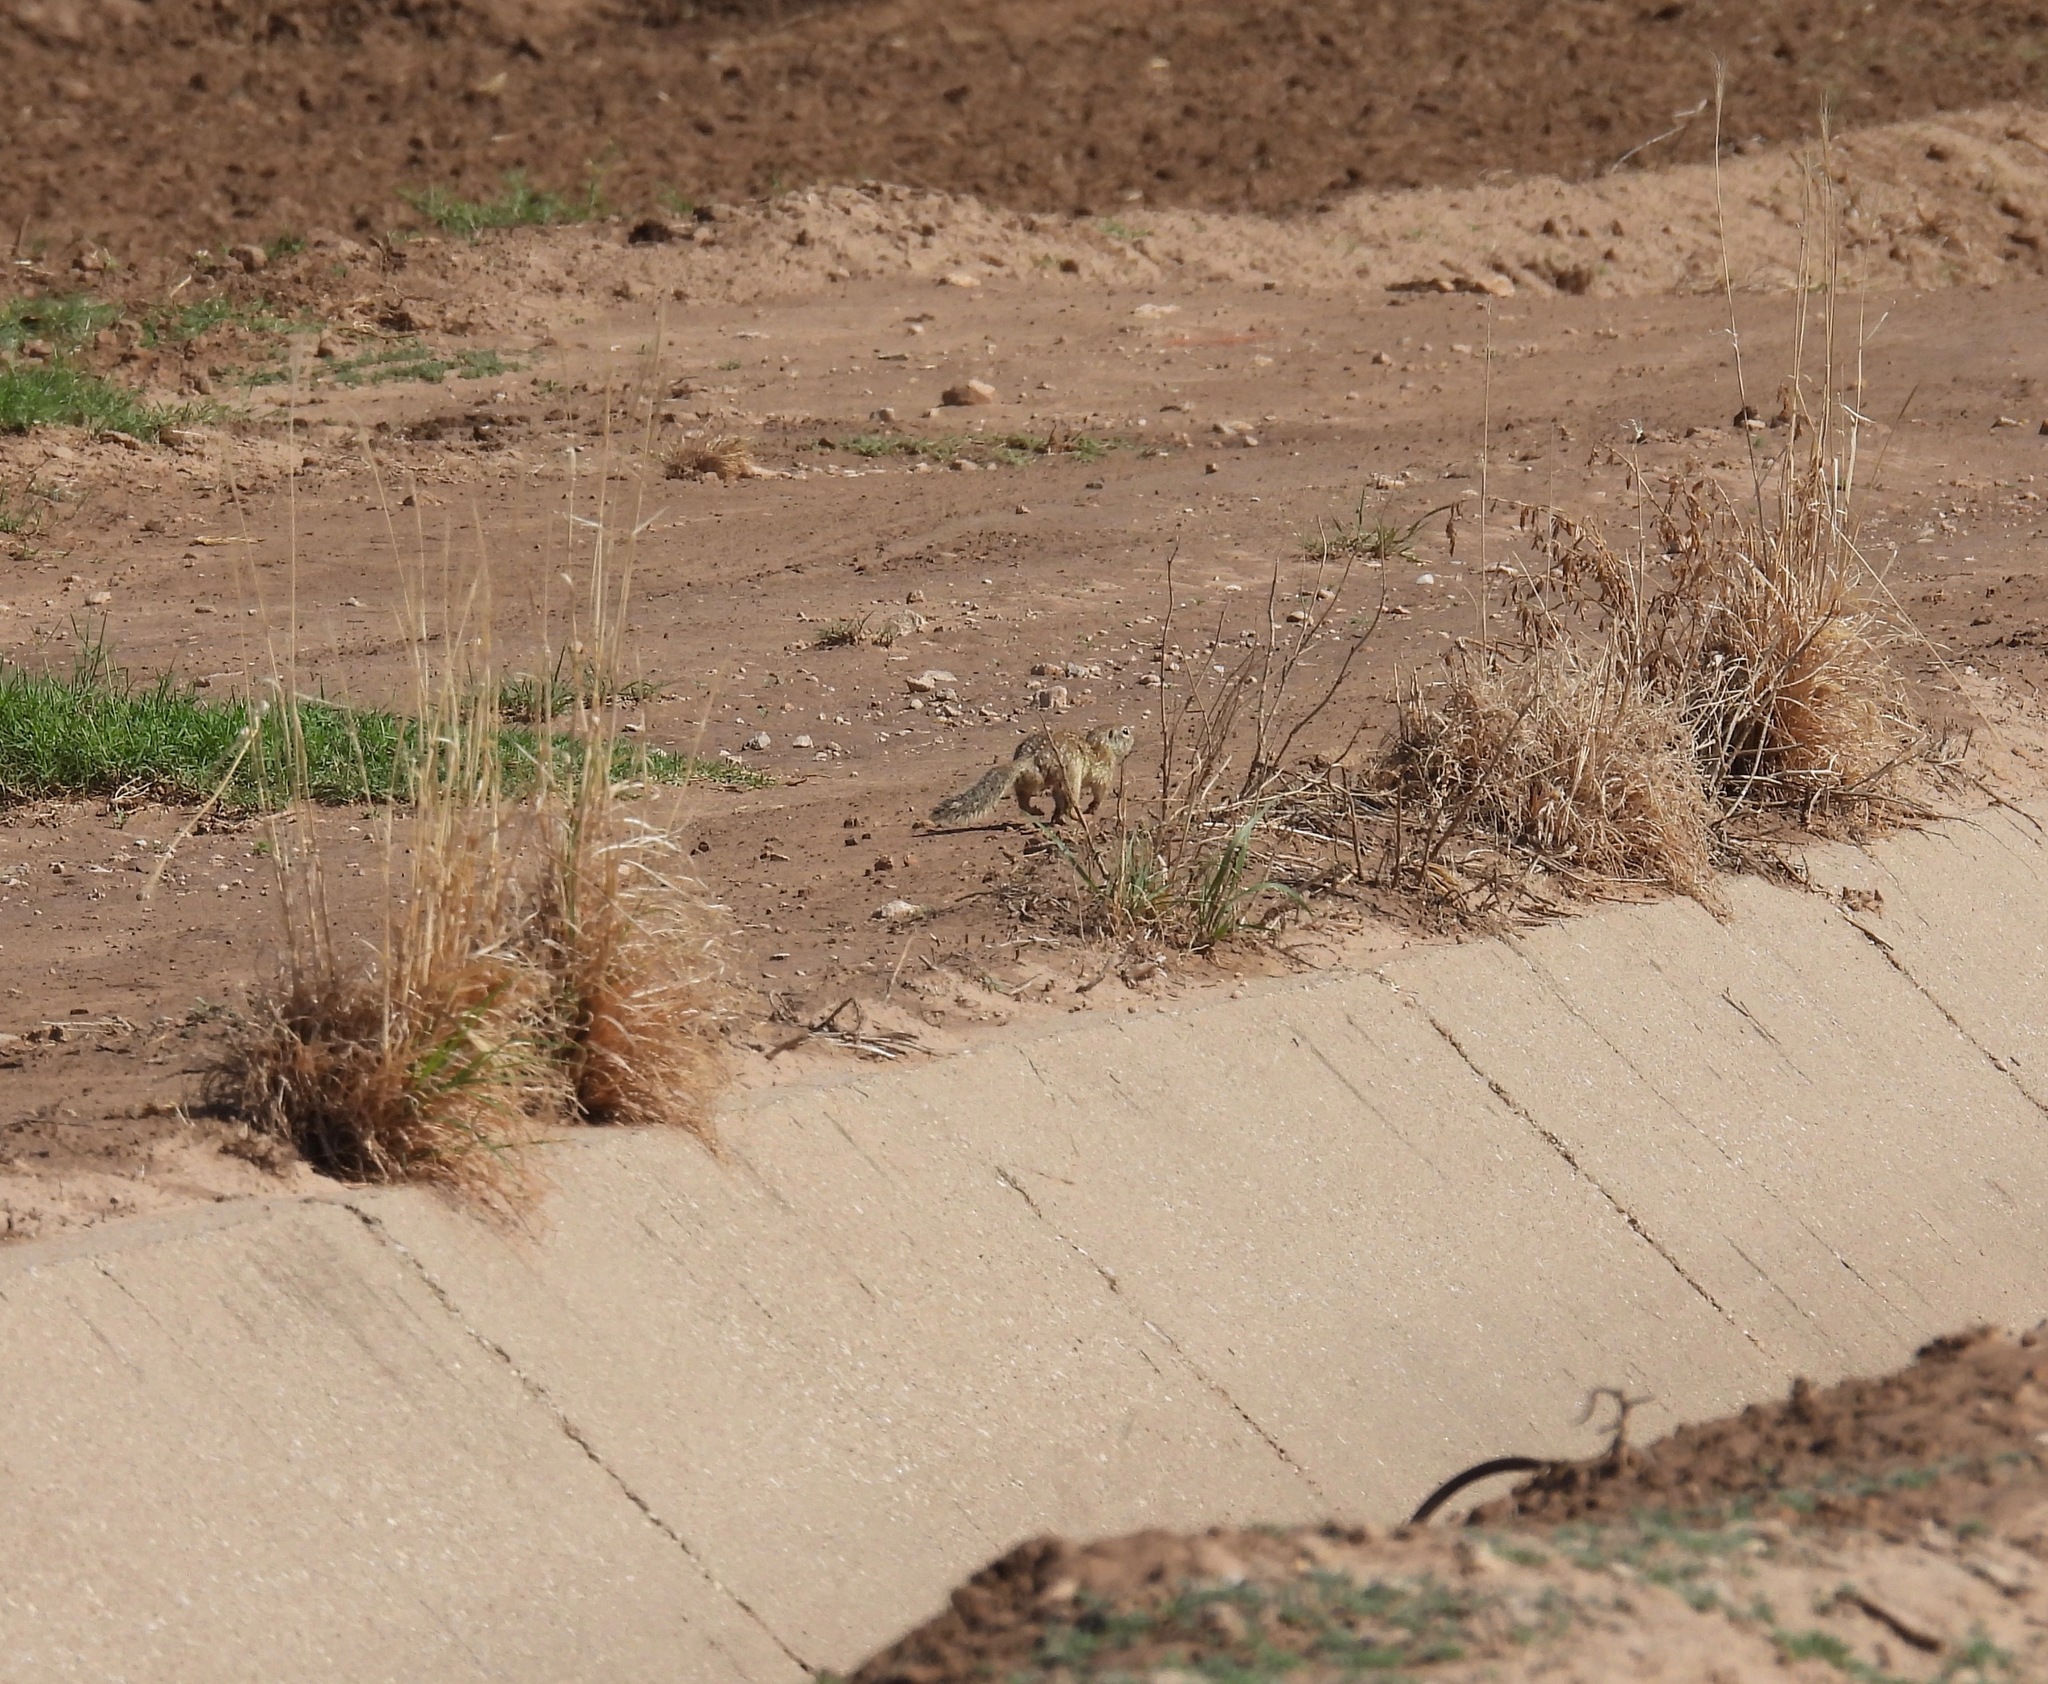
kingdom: Animalia
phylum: Chordata
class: Mammalia
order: Rodentia
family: Sciuridae
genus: Ictidomys
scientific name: Ictidomys parvidens
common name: Rio grande ground squirrel
